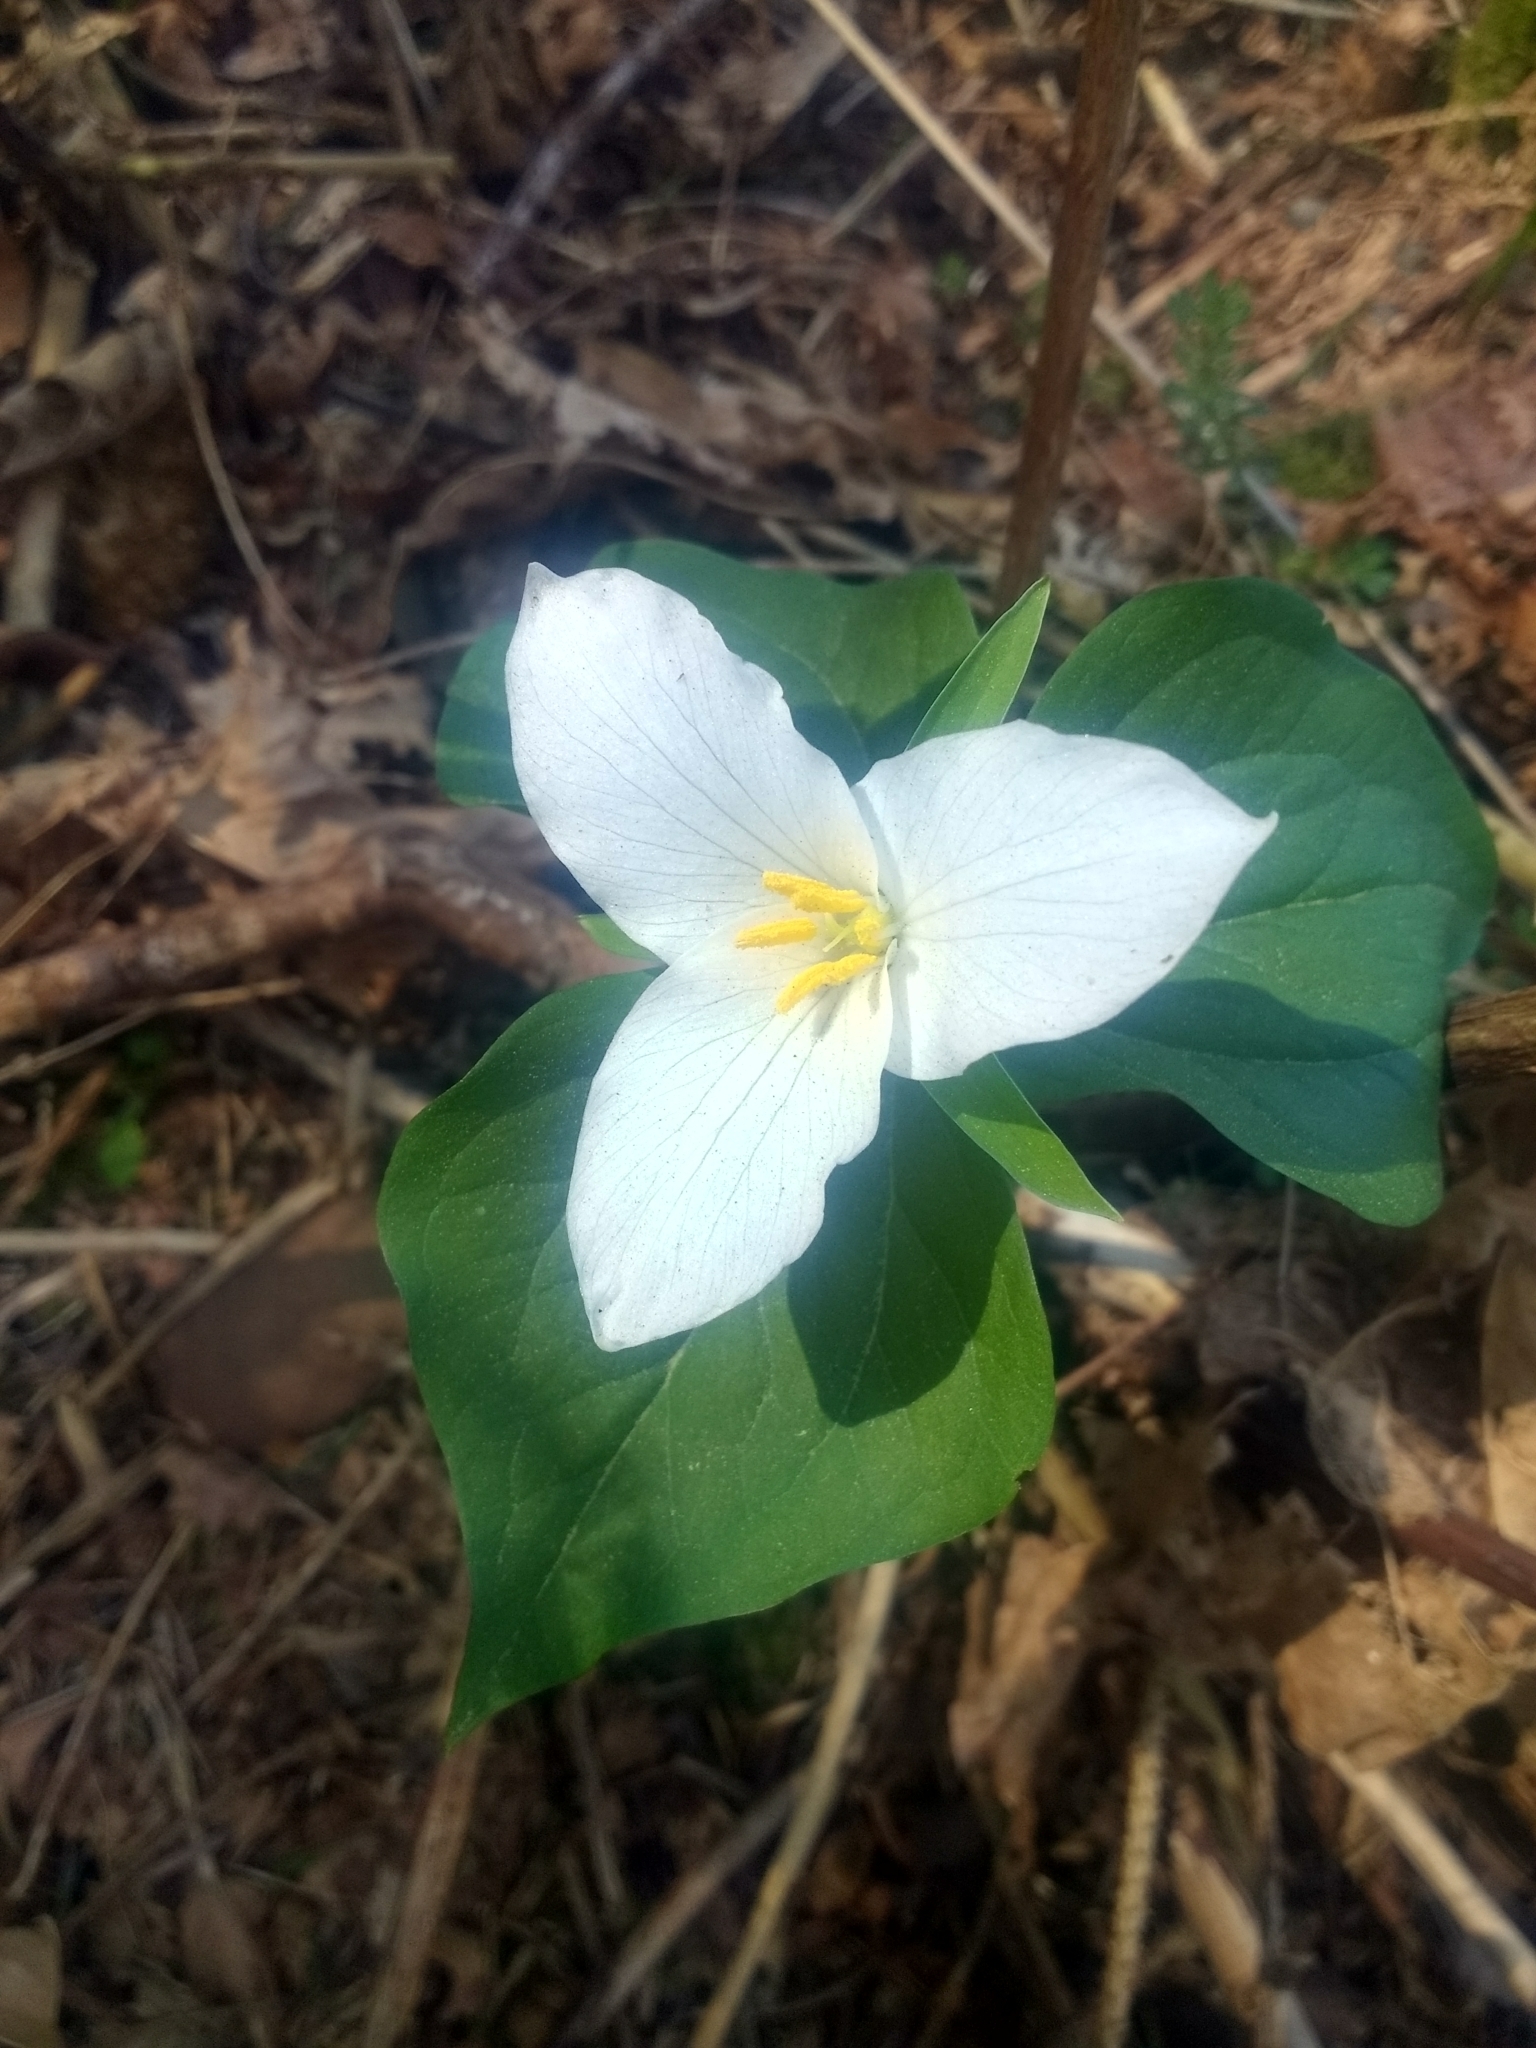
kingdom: Plantae
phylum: Tracheophyta
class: Liliopsida
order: Liliales
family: Melanthiaceae
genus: Trillium
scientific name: Trillium ovatum
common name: Pacific trillium
